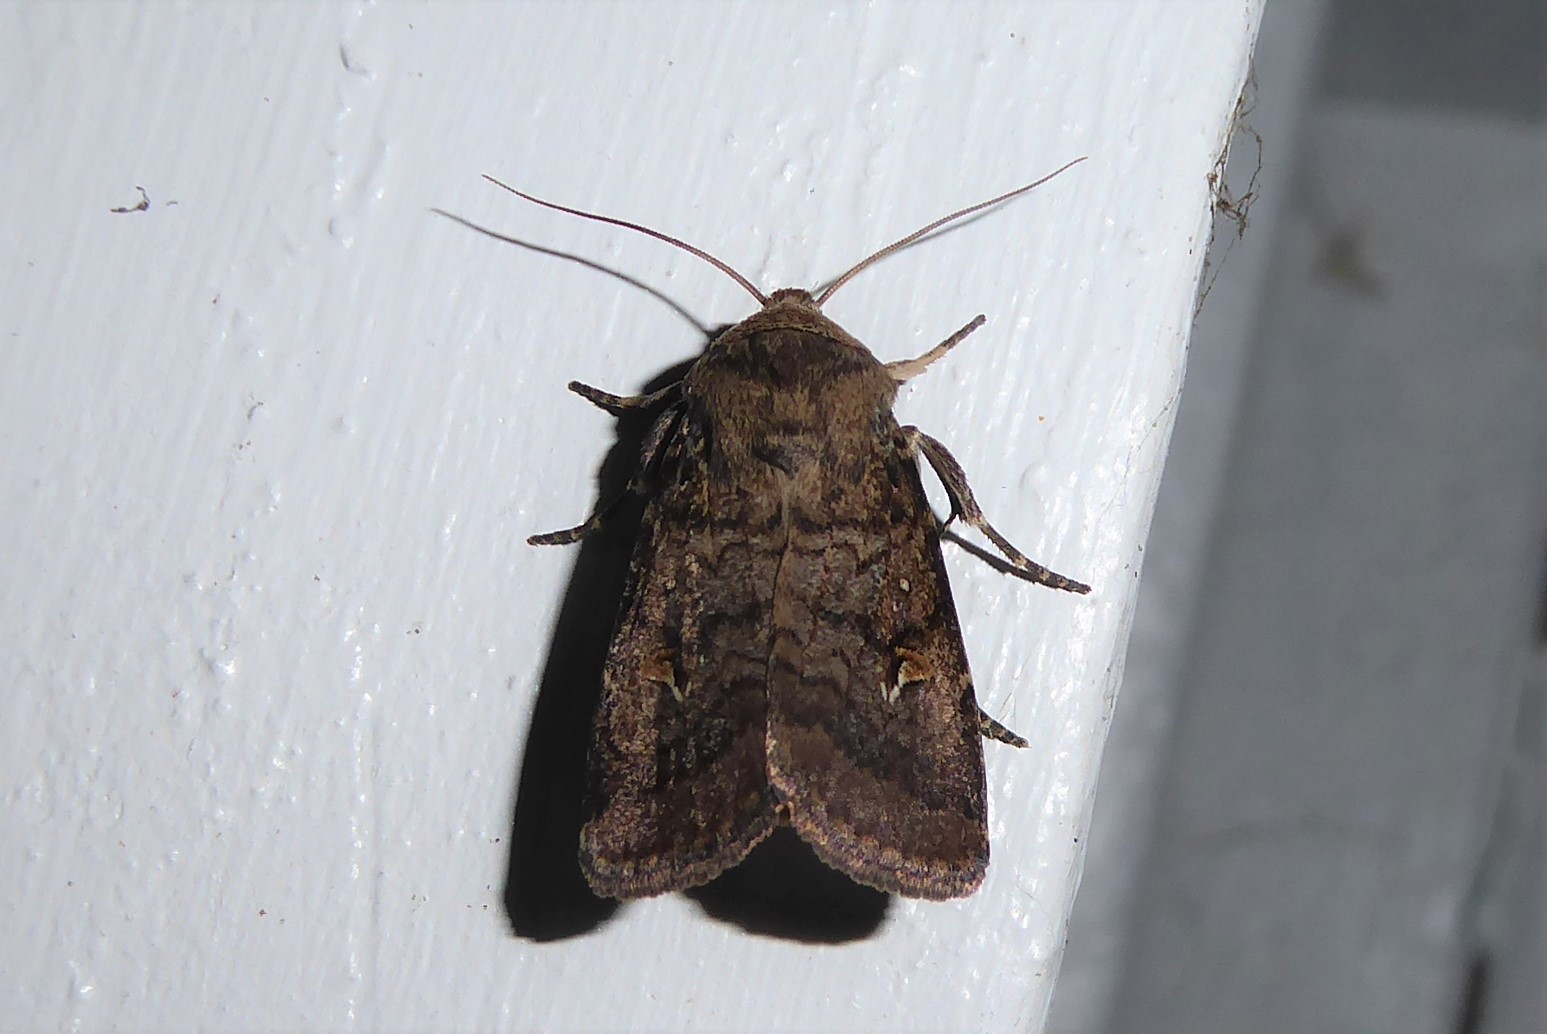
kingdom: Animalia
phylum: Arthropoda
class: Insecta
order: Lepidoptera
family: Noctuidae
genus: Proteuxoa
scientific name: Proteuxoa tetronycha
